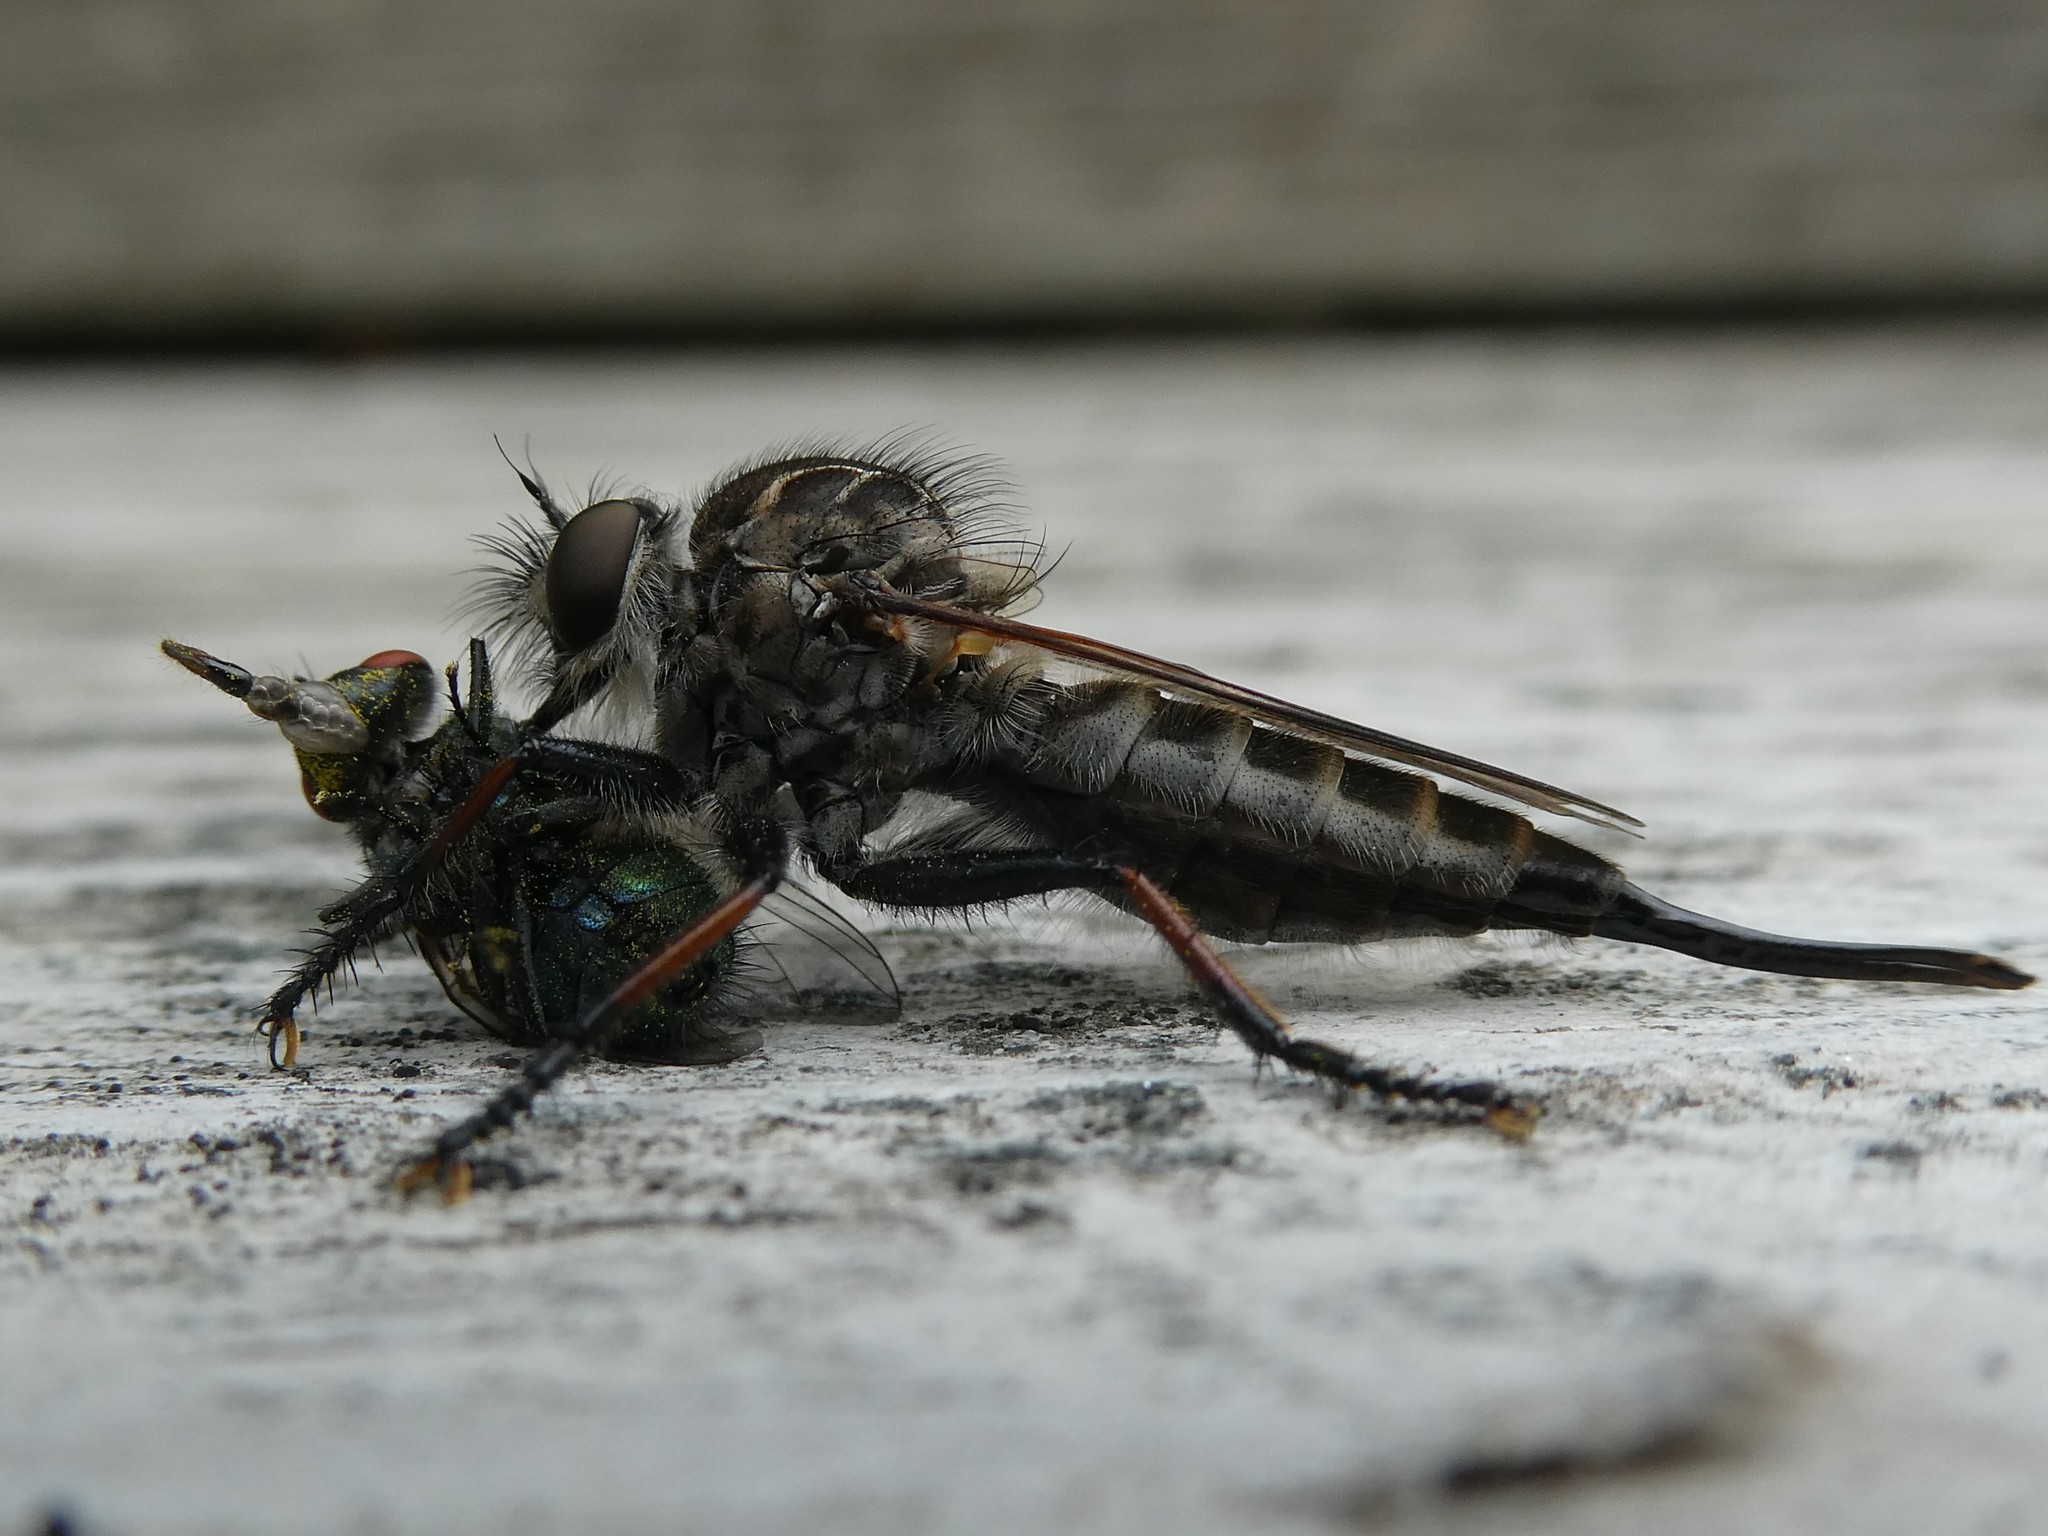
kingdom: Animalia
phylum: Arthropoda
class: Insecta
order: Diptera
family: Asilidae
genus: Efferia
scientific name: Efferia aestuans
